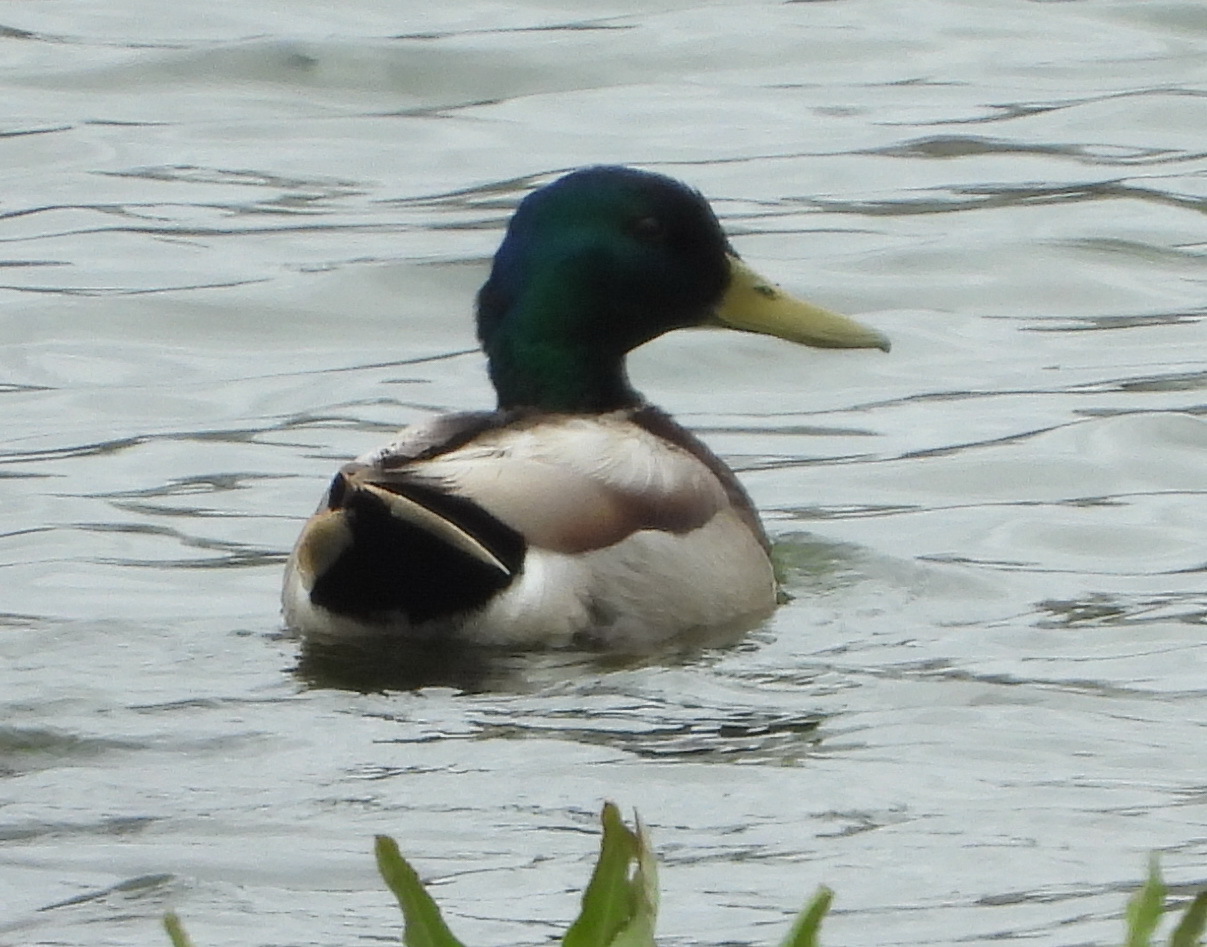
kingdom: Animalia
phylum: Chordata
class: Aves
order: Anseriformes
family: Anatidae
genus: Anas
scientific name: Anas platyrhynchos
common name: Mallard
